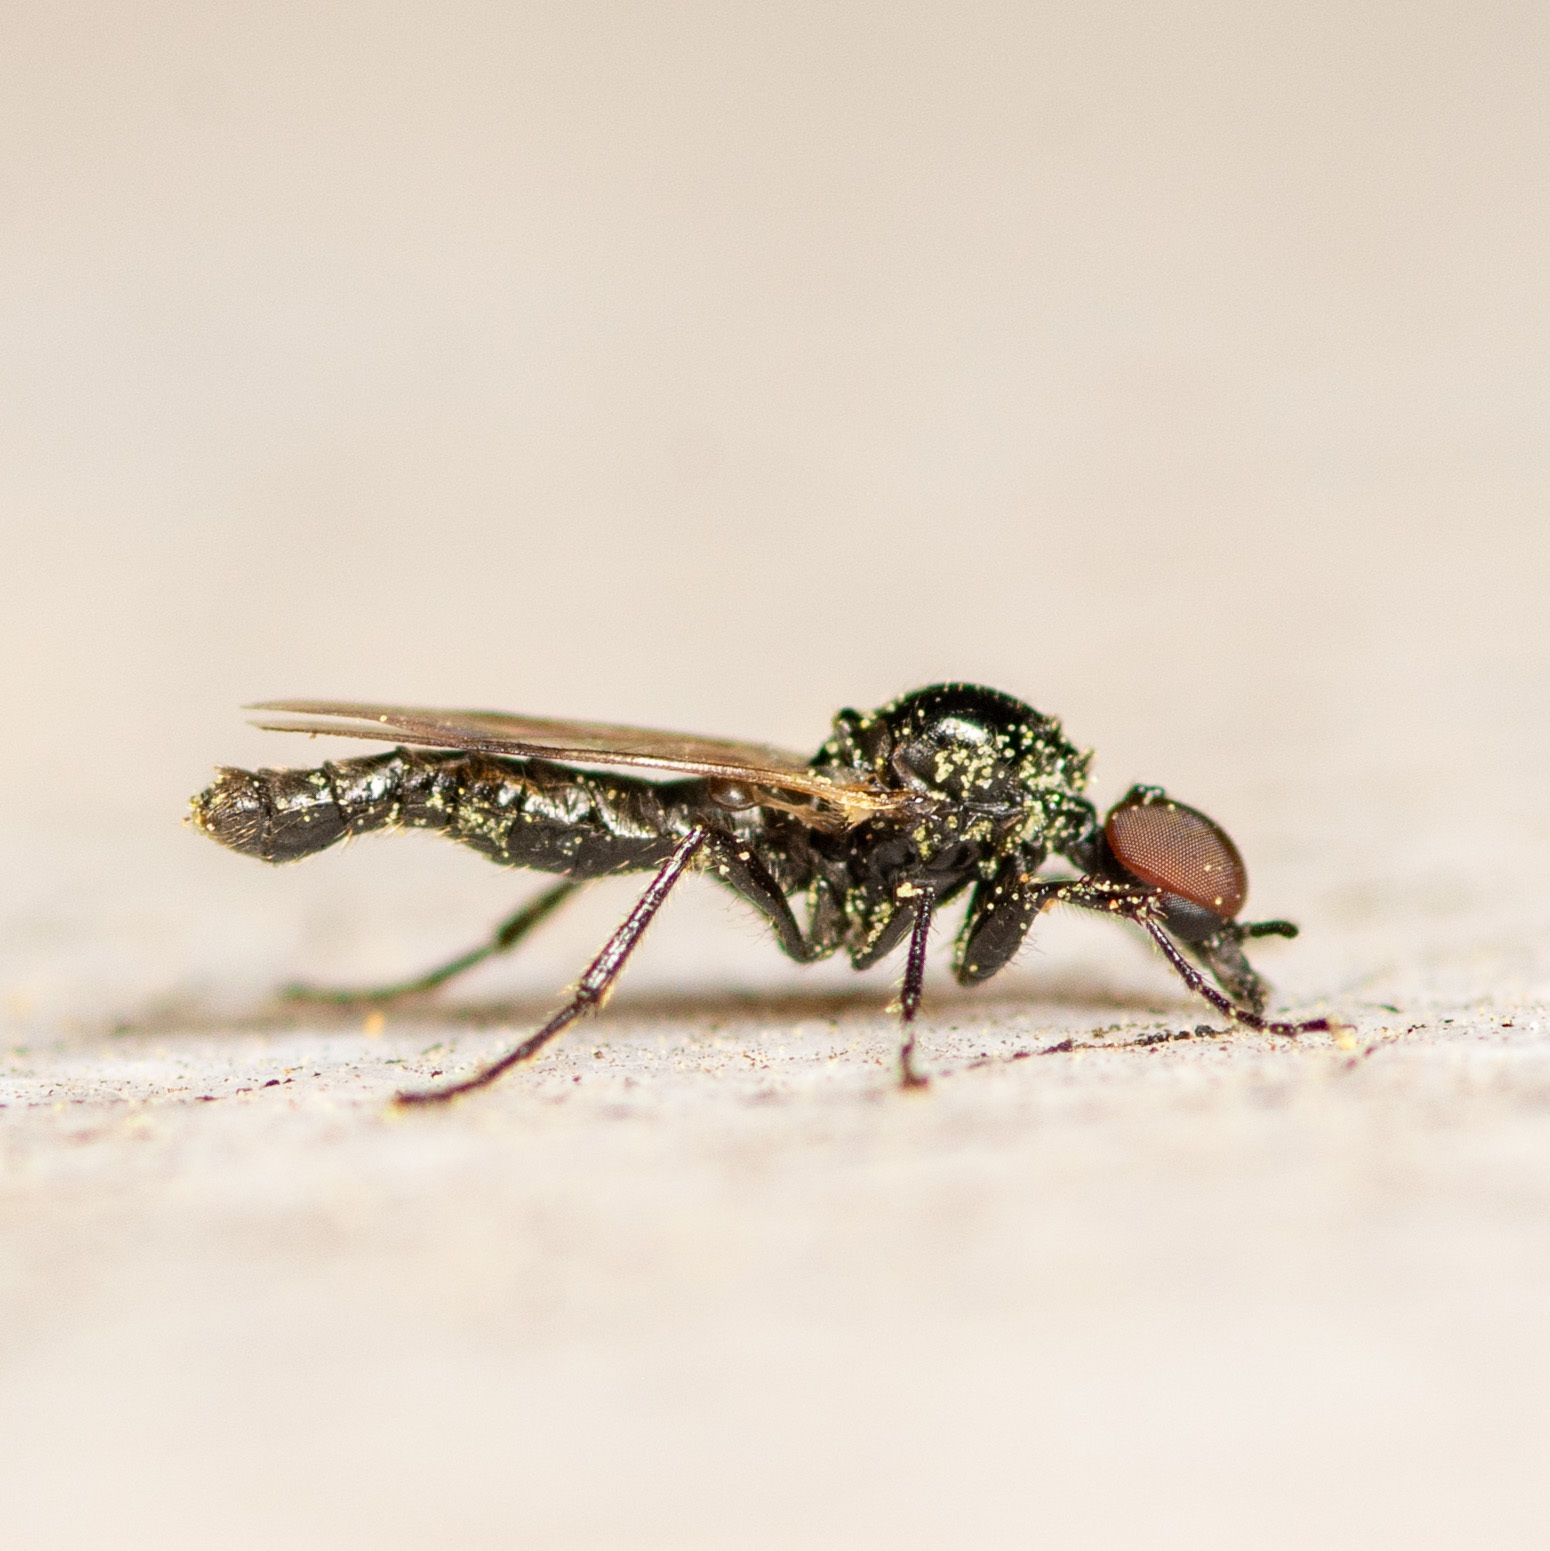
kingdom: Animalia
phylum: Arthropoda
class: Insecta
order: Diptera
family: Bibionidae
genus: Dilophus
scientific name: Dilophus
